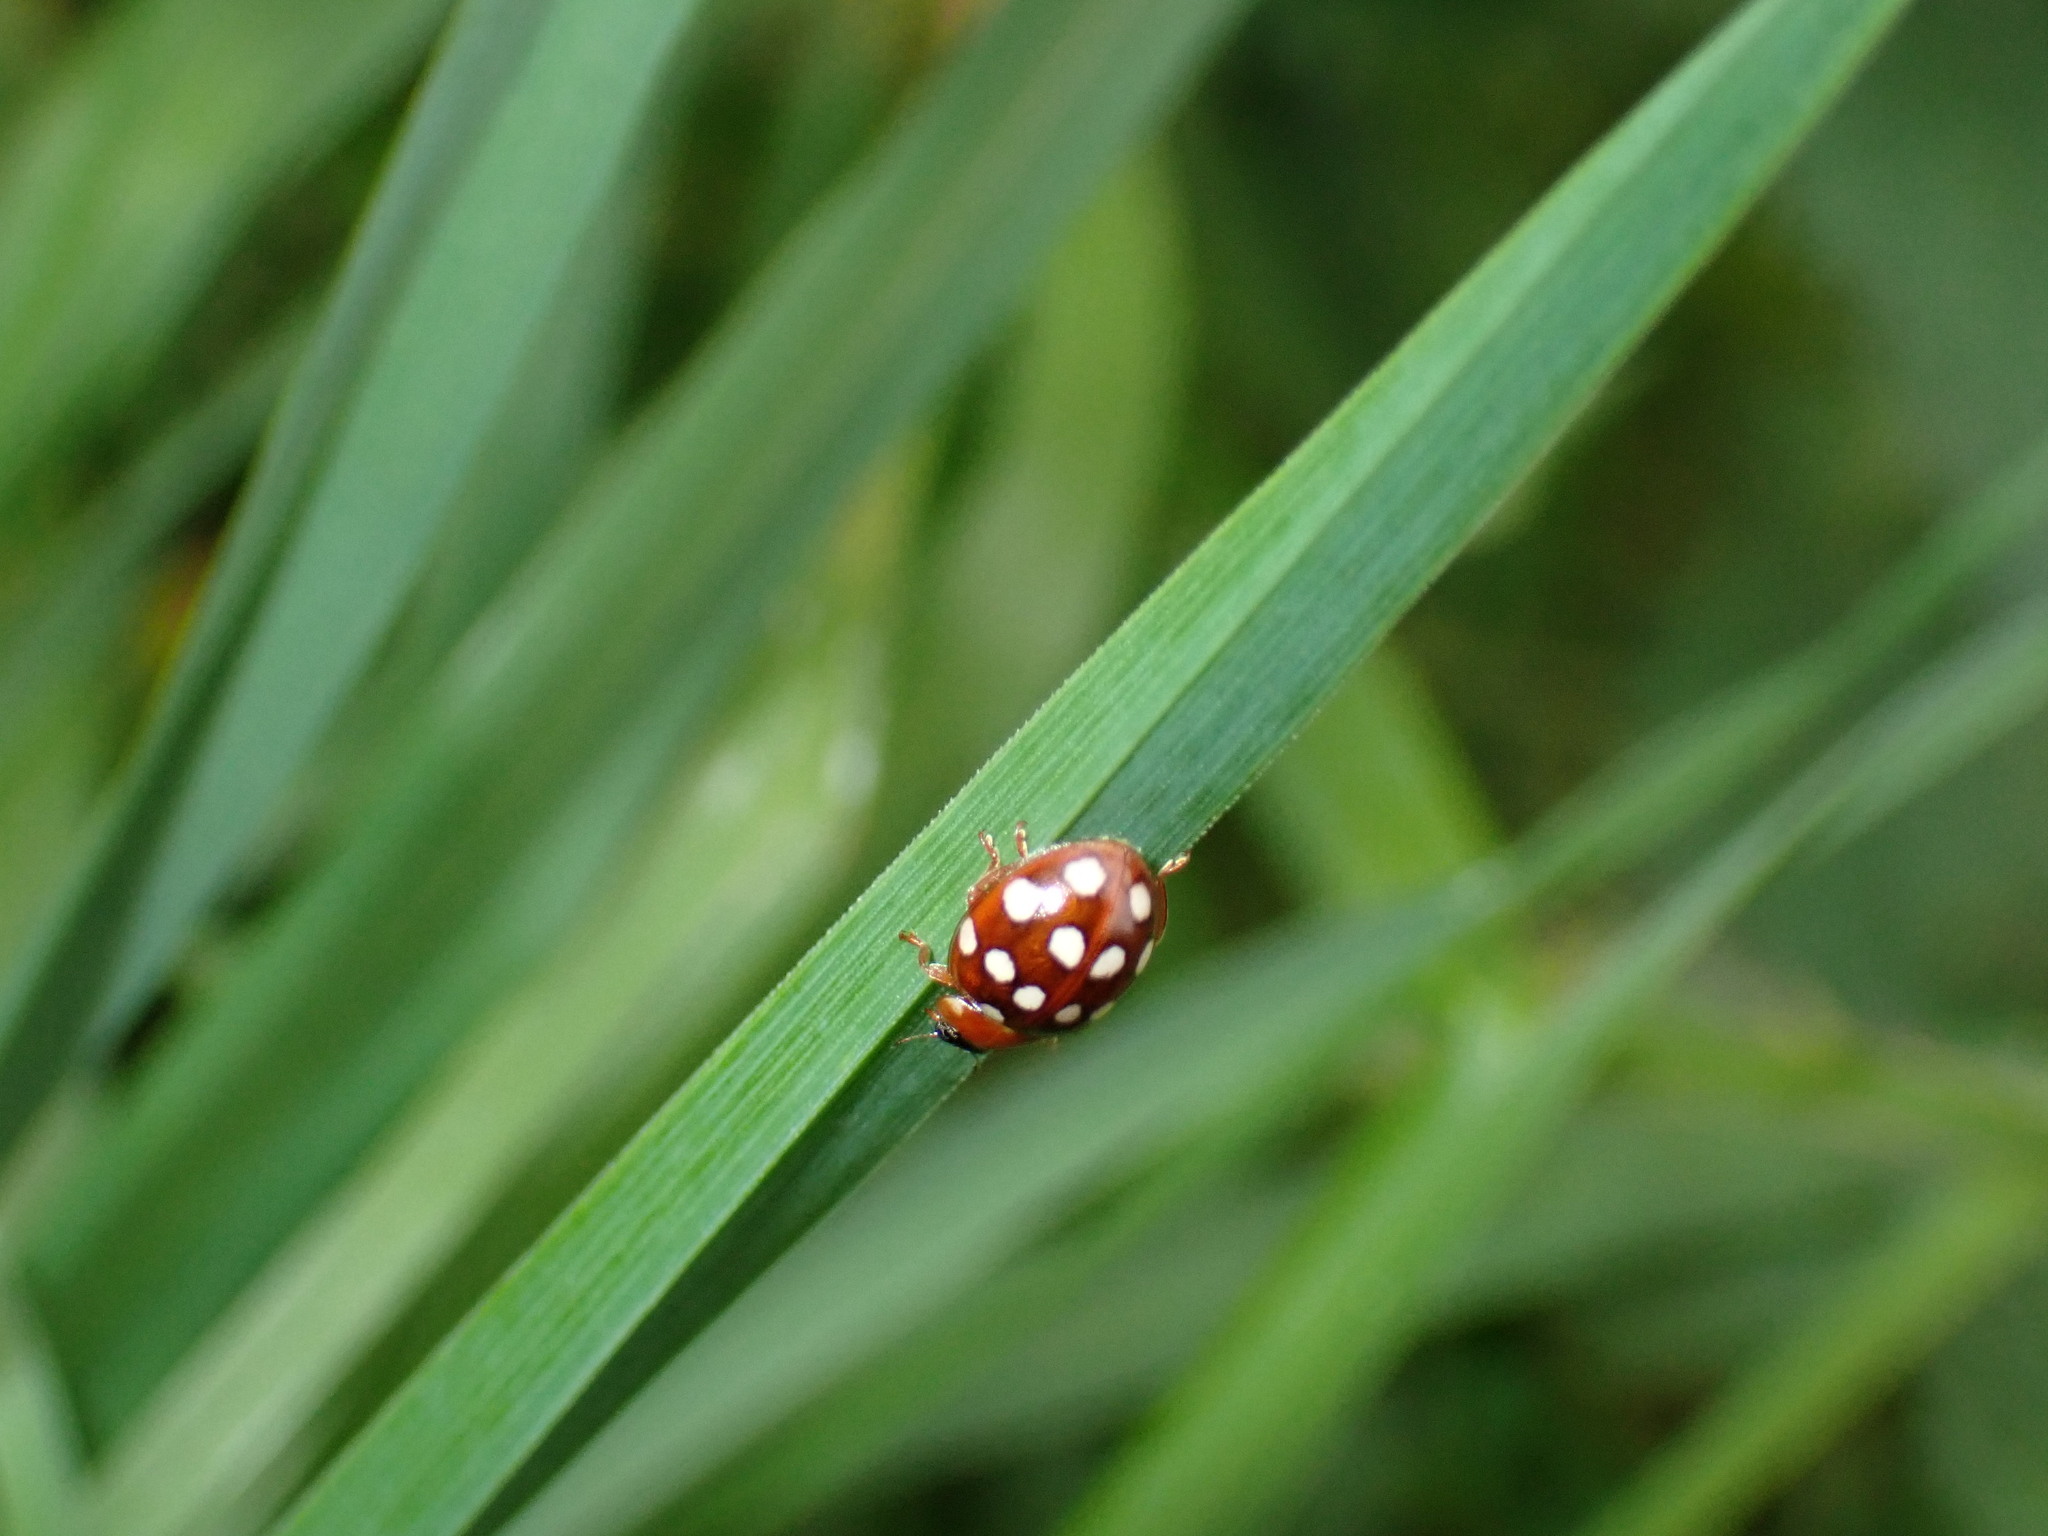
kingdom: Animalia
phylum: Arthropoda
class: Insecta
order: Coleoptera
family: Coccinellidae
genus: Calvia
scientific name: Calvia quatuordecimguttata
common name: Cream-spot ladybird
